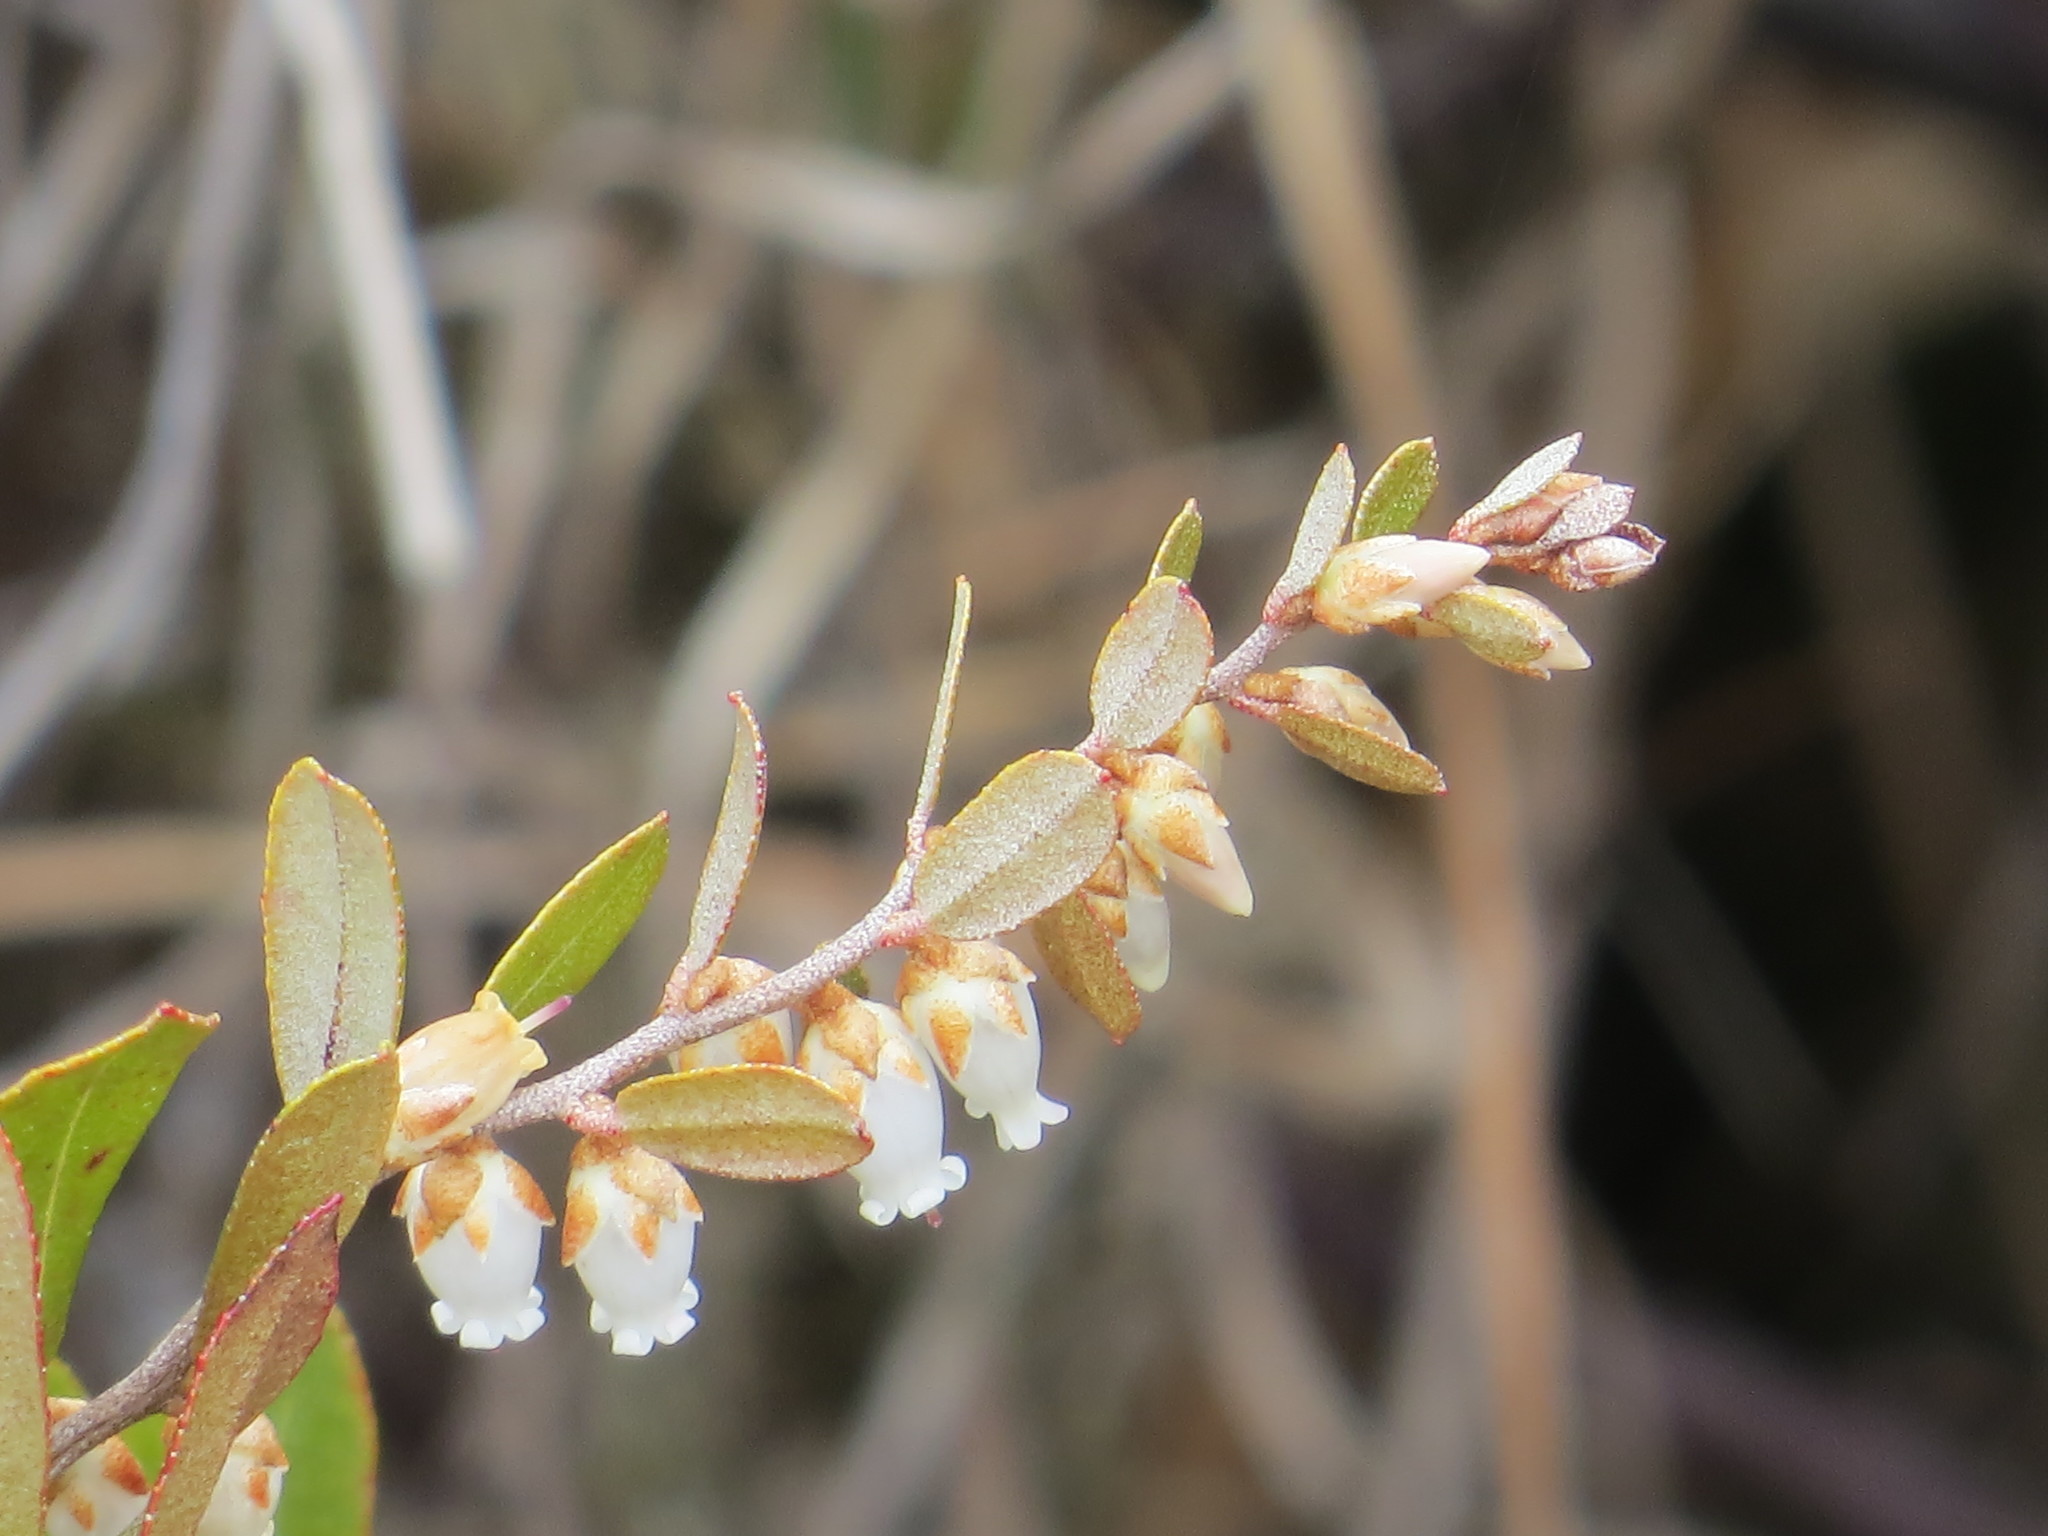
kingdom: Plantae
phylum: Tracheophyta
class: Magnoliopsida
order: Ericales
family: Ericaceae
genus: Chamaedaphne
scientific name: Chamaedaphne calyculata
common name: Leatherleaf
